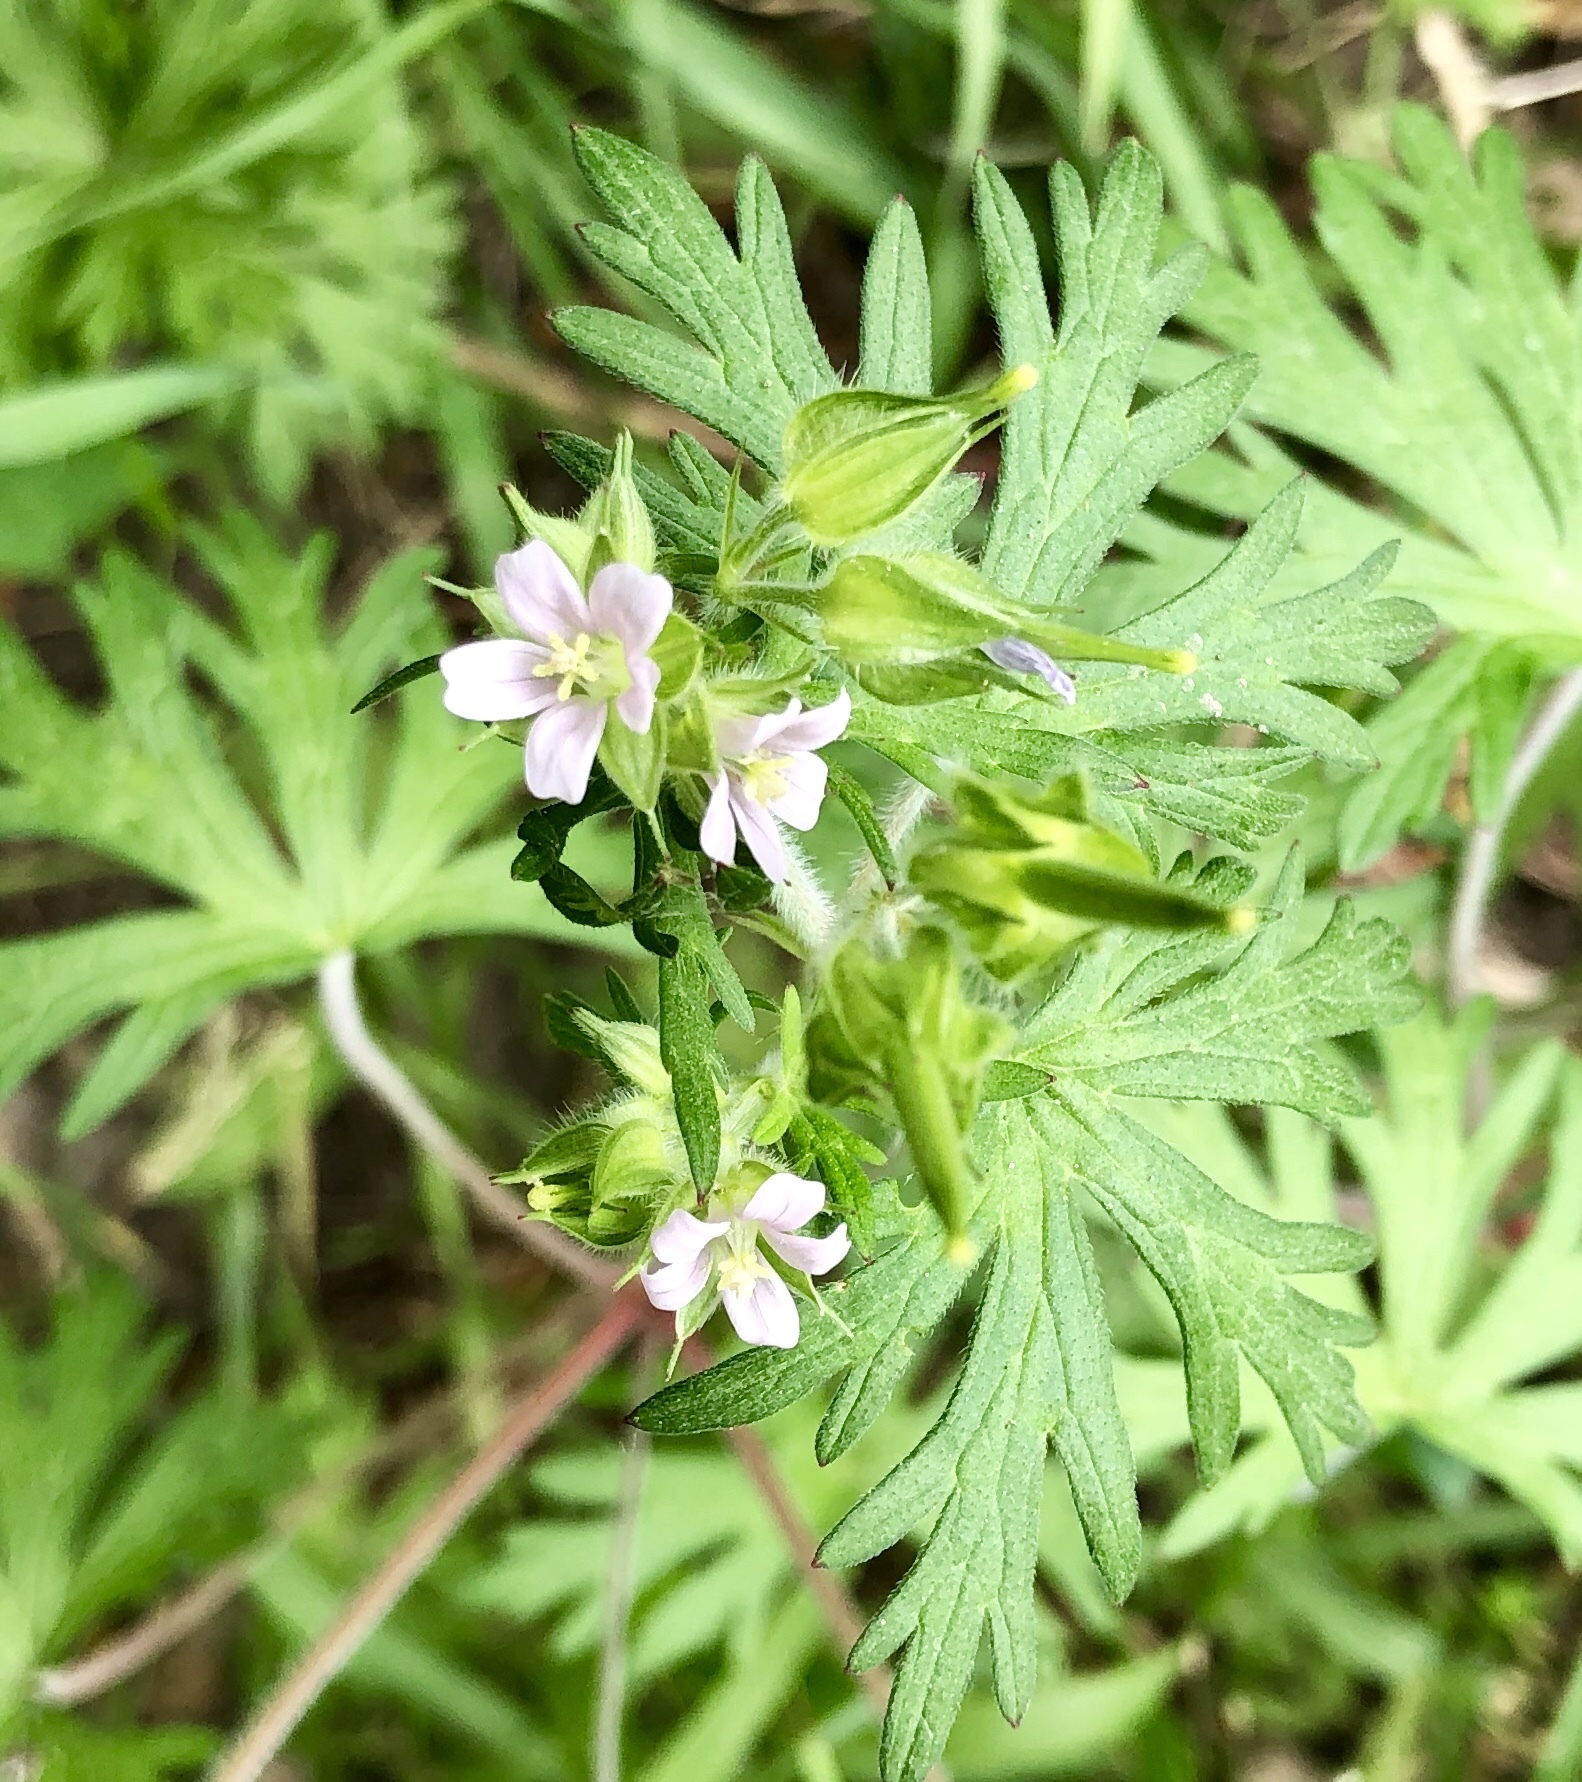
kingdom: Plantae
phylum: Tracheophyta
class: Magnoliopsida
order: Geraniales
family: Geraniaceae
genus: Geranium
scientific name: Geranium carolinianum
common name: Carolina crane's-bill
